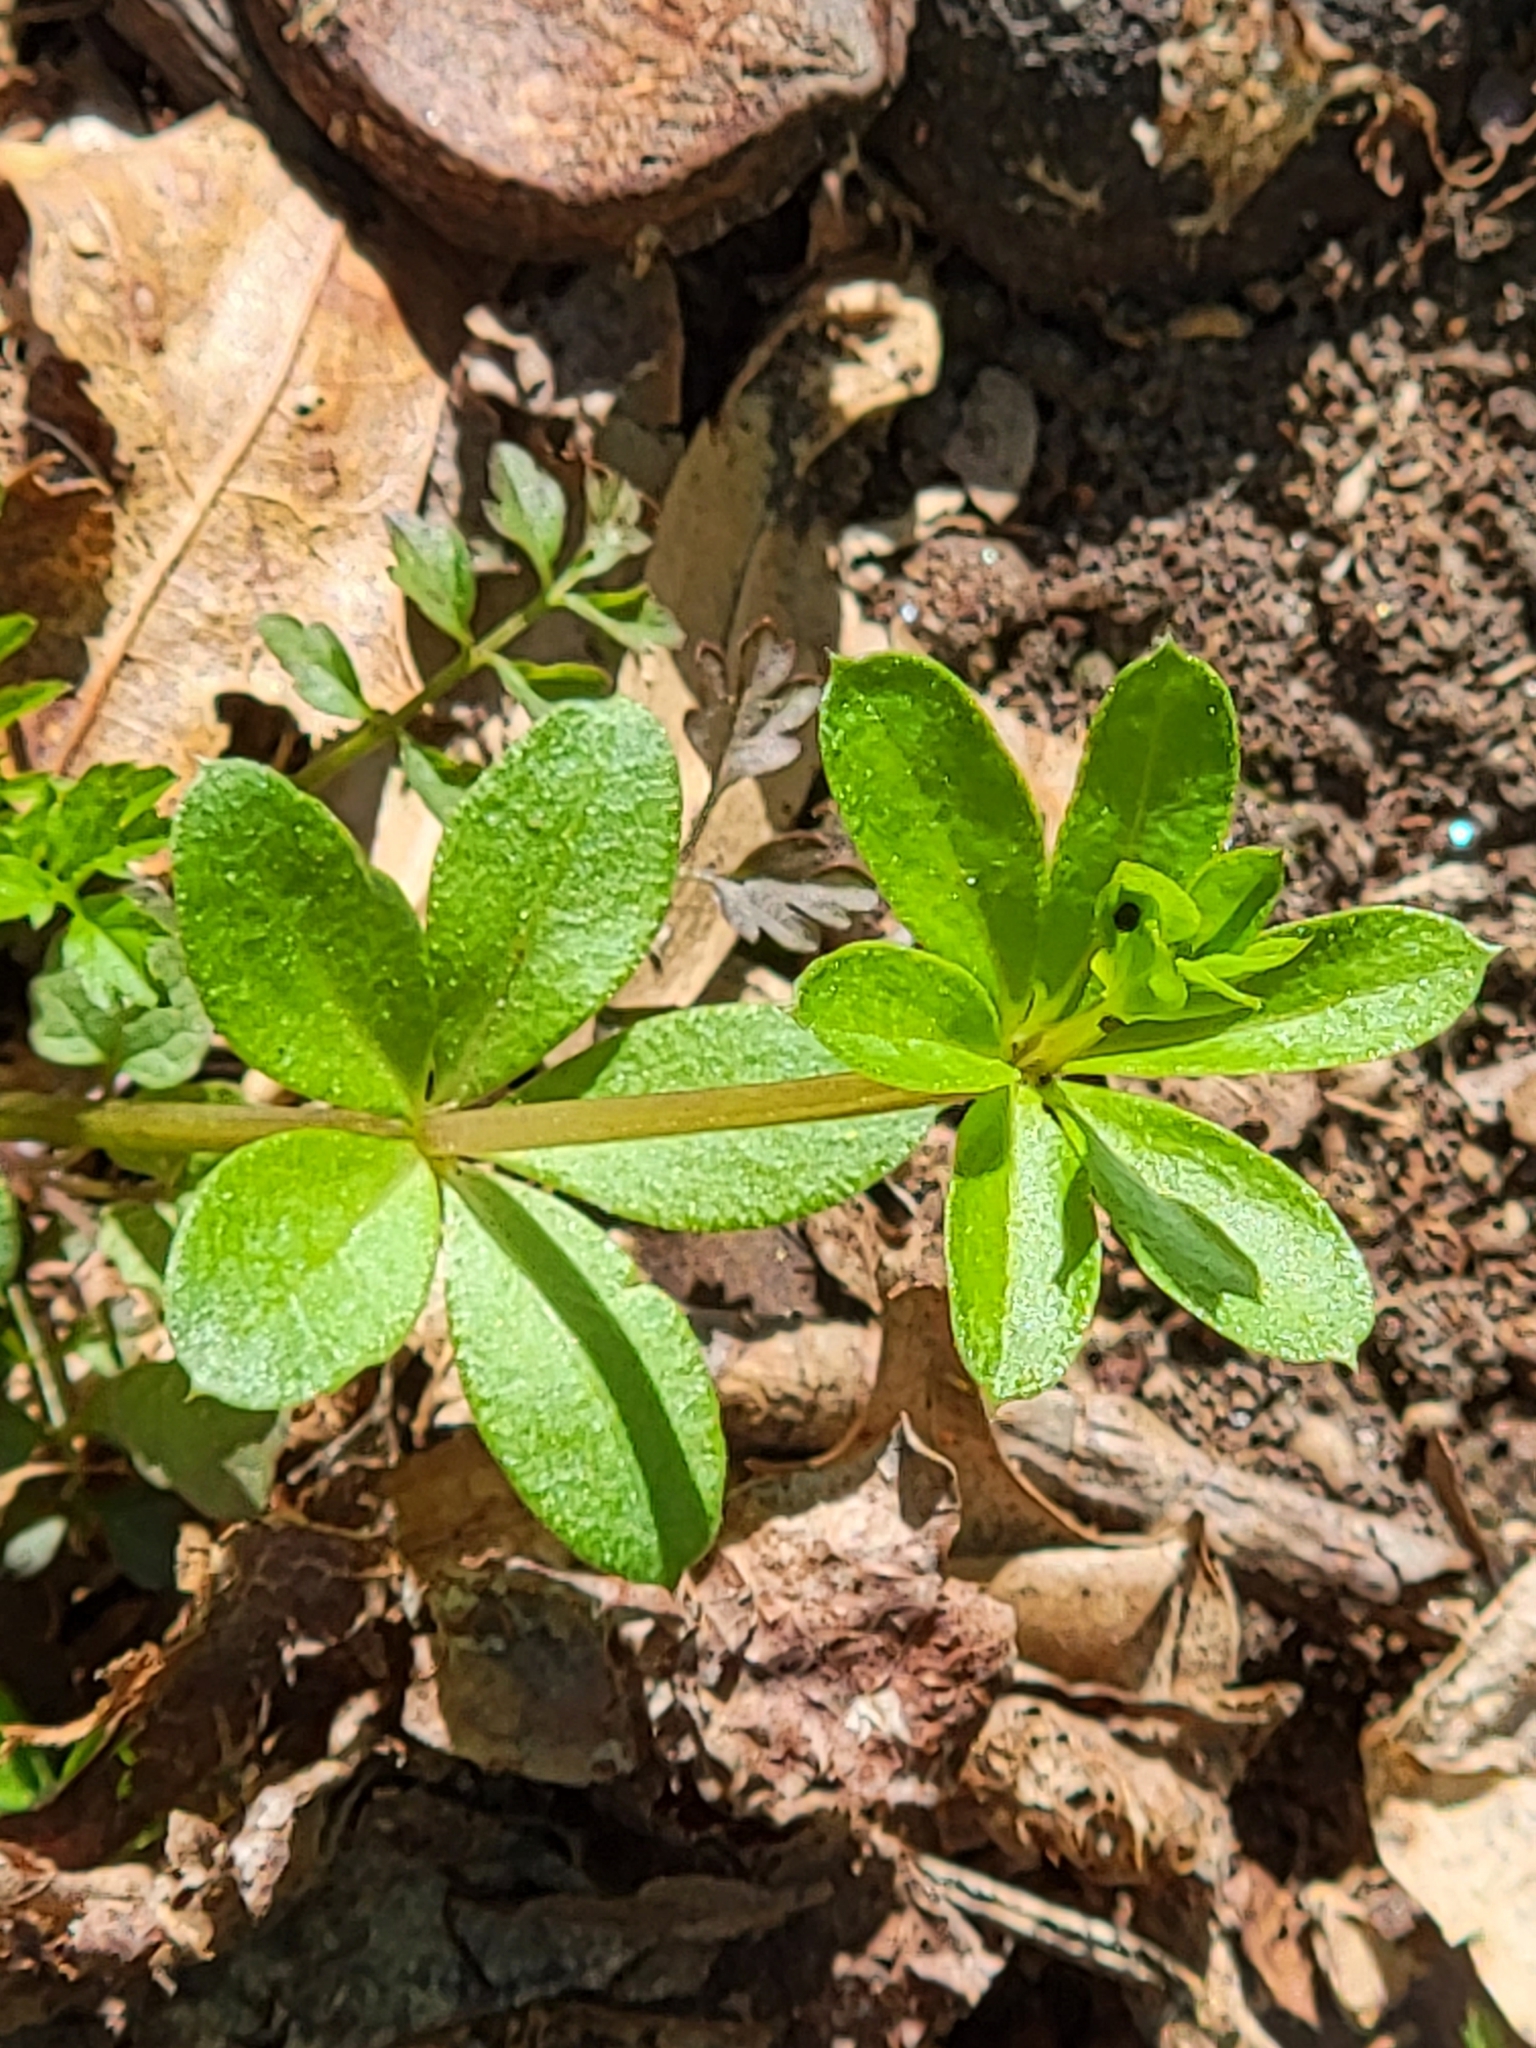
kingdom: Plantae
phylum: Tracheophyta
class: Magnoliopsida
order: Gentianales
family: Rubiaceae
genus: Galium
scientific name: Galium triflorum
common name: Fragrant bedstraw
